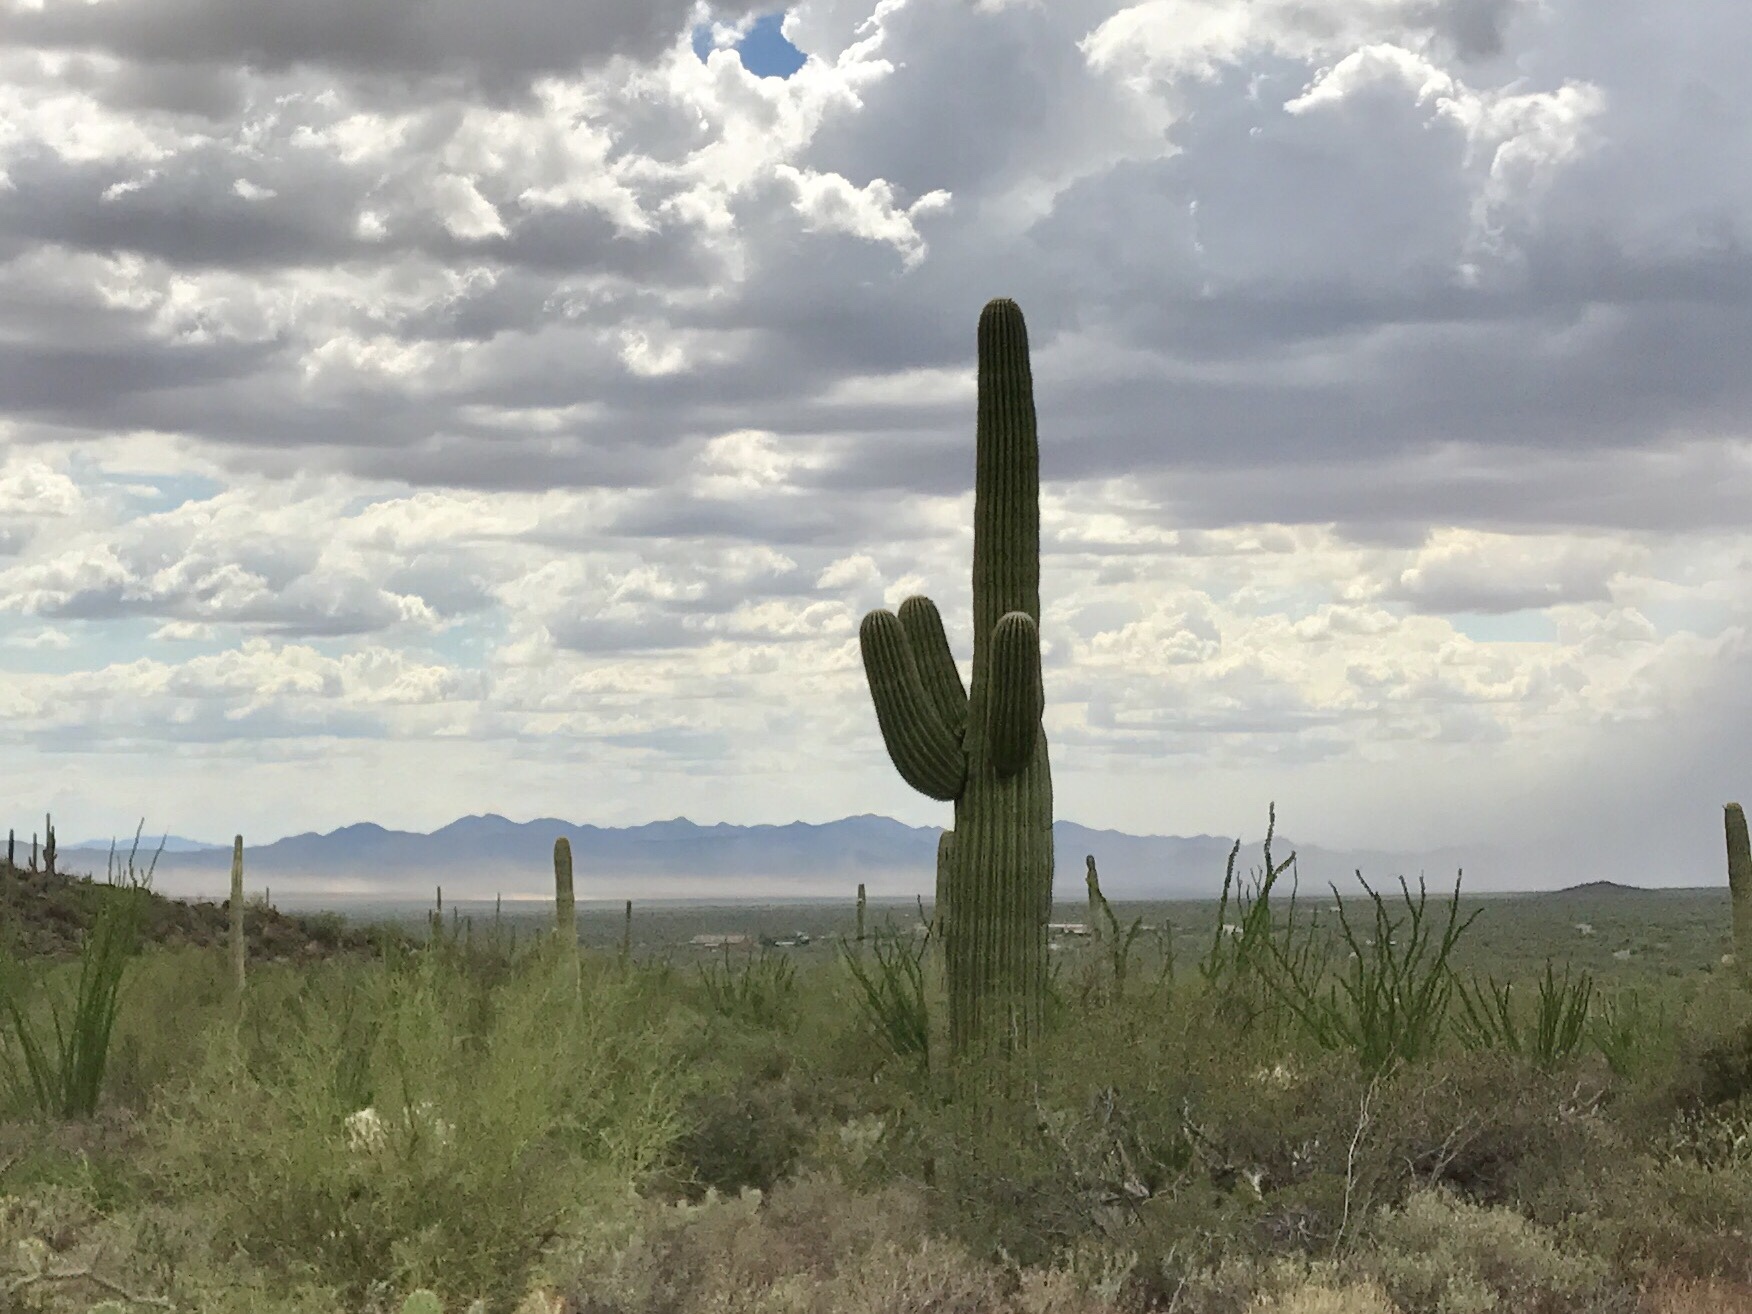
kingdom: Plantae
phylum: Tracheophyta
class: Magnoliopsida
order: Caryophyllales
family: Cactaceae
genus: Carnegiea
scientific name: Carnegiea gigantea
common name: Saguaro
